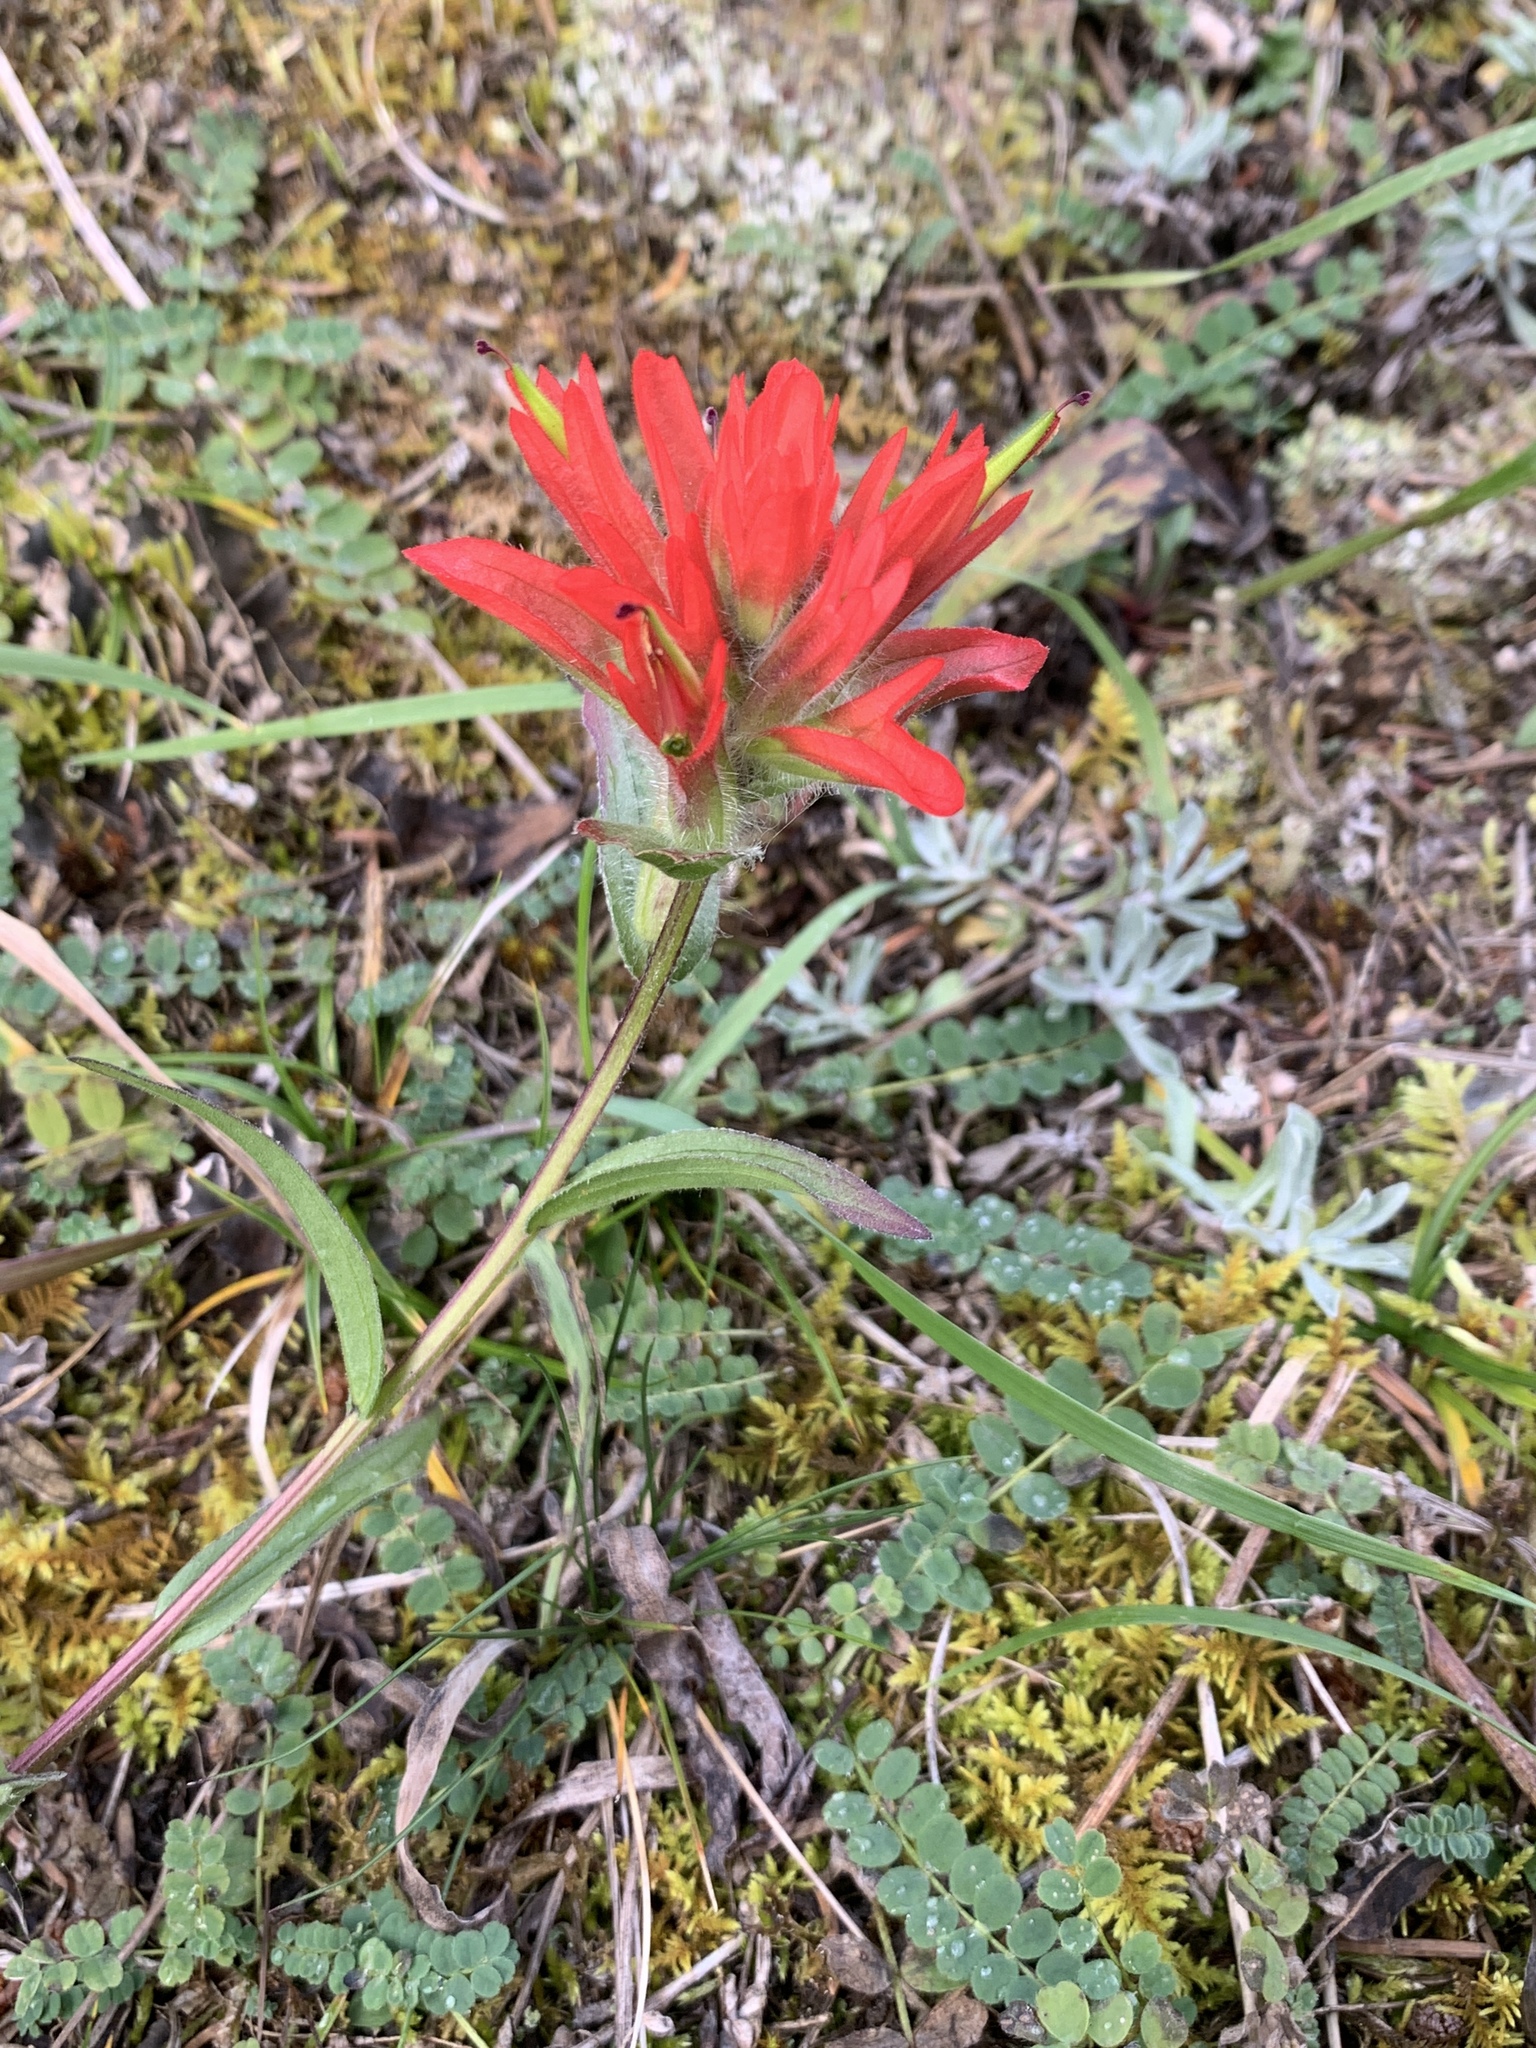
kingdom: Plantae
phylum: Tracheophyta
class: Magnoliopsida
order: Lamiales
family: Orobanchaceae
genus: Castilleja
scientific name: Castilleja miniata
